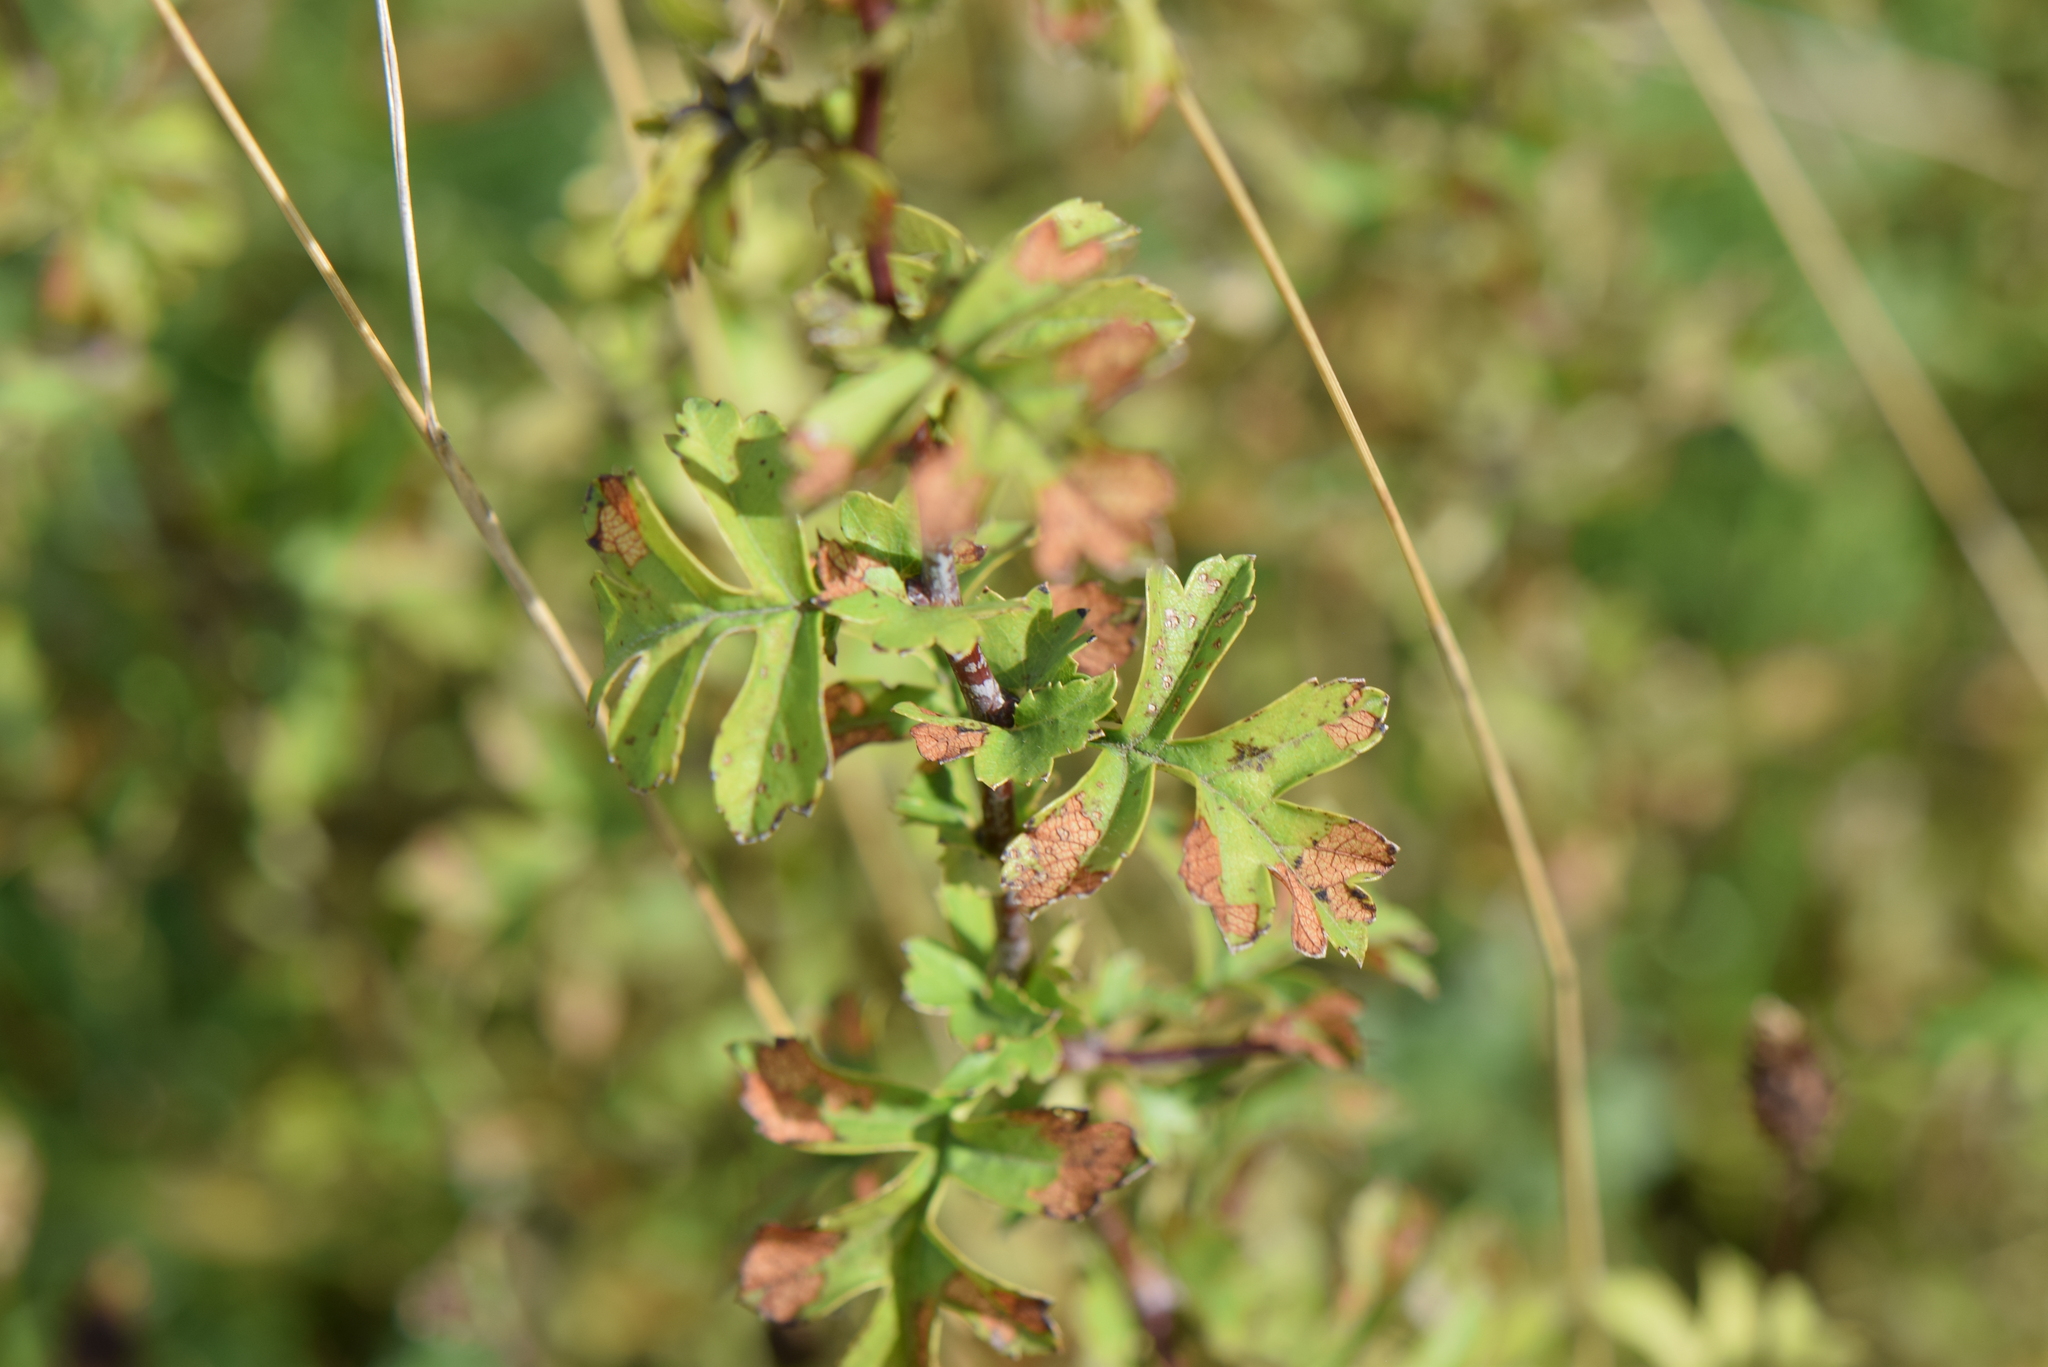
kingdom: Plantae
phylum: Tracheophyta
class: Magnoliopsida
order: Rosales
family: Rosaceae
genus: Crataegus
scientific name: Crataegus monogyna
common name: Hawthorn
